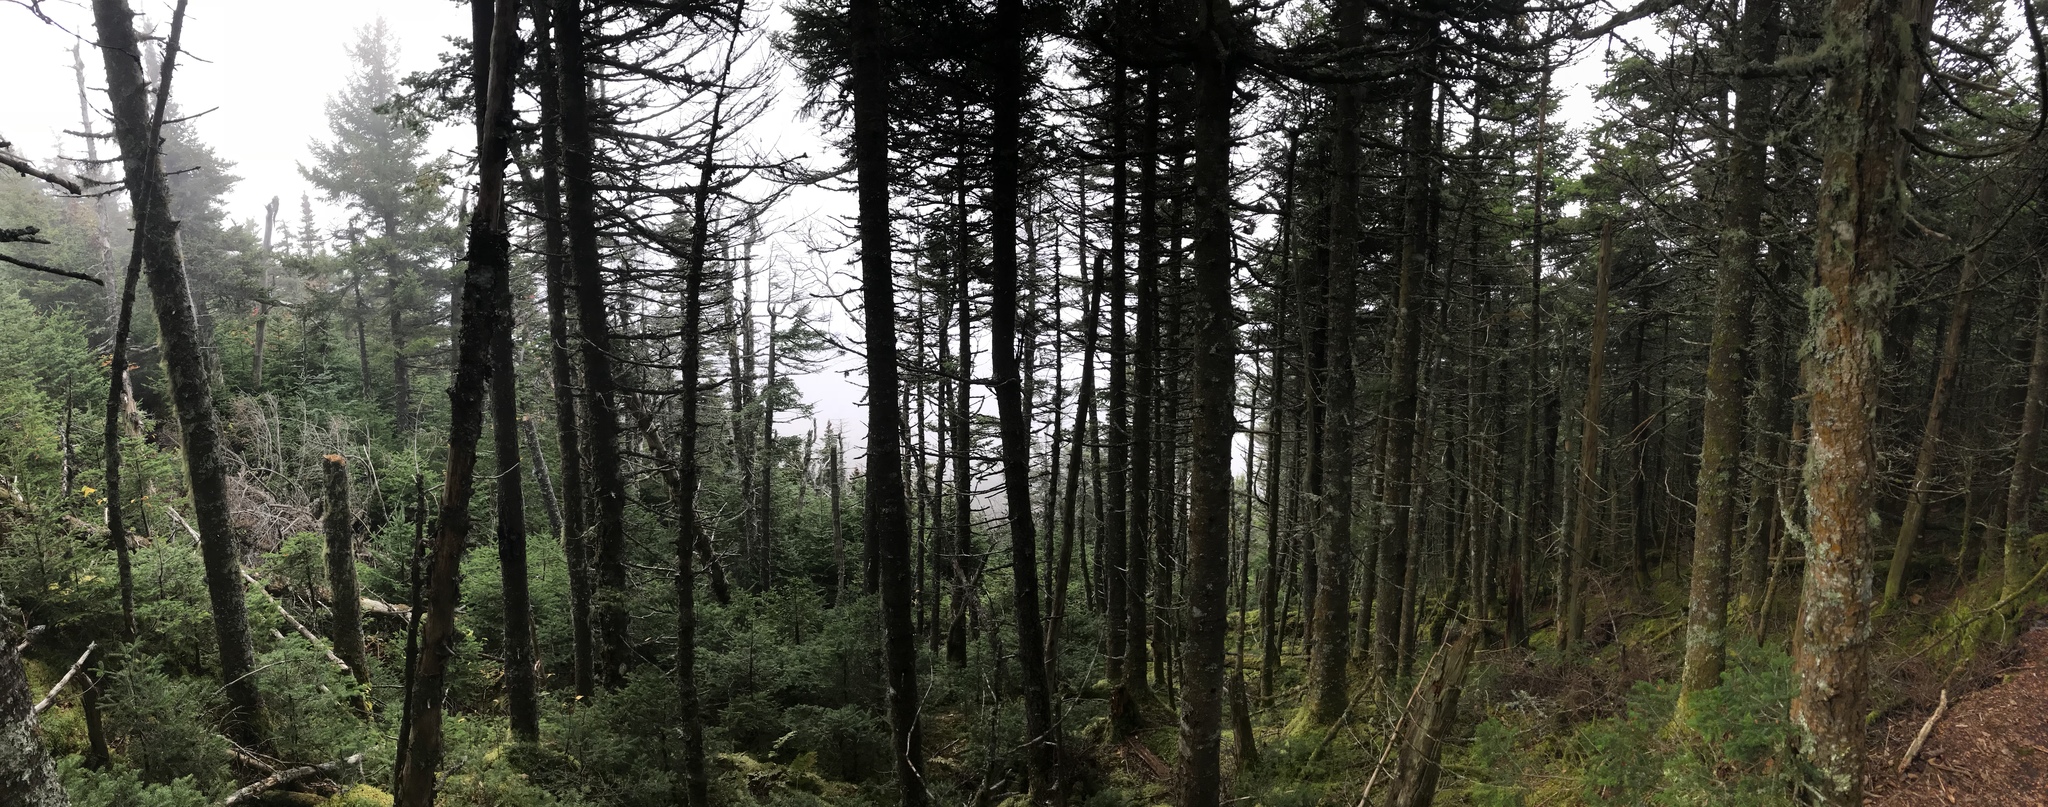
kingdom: Plantae
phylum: Tracheophyta
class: Pinopsida
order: Pinales
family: Pinaceae
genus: Abies
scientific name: Abies balsamea
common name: Balsam fir
